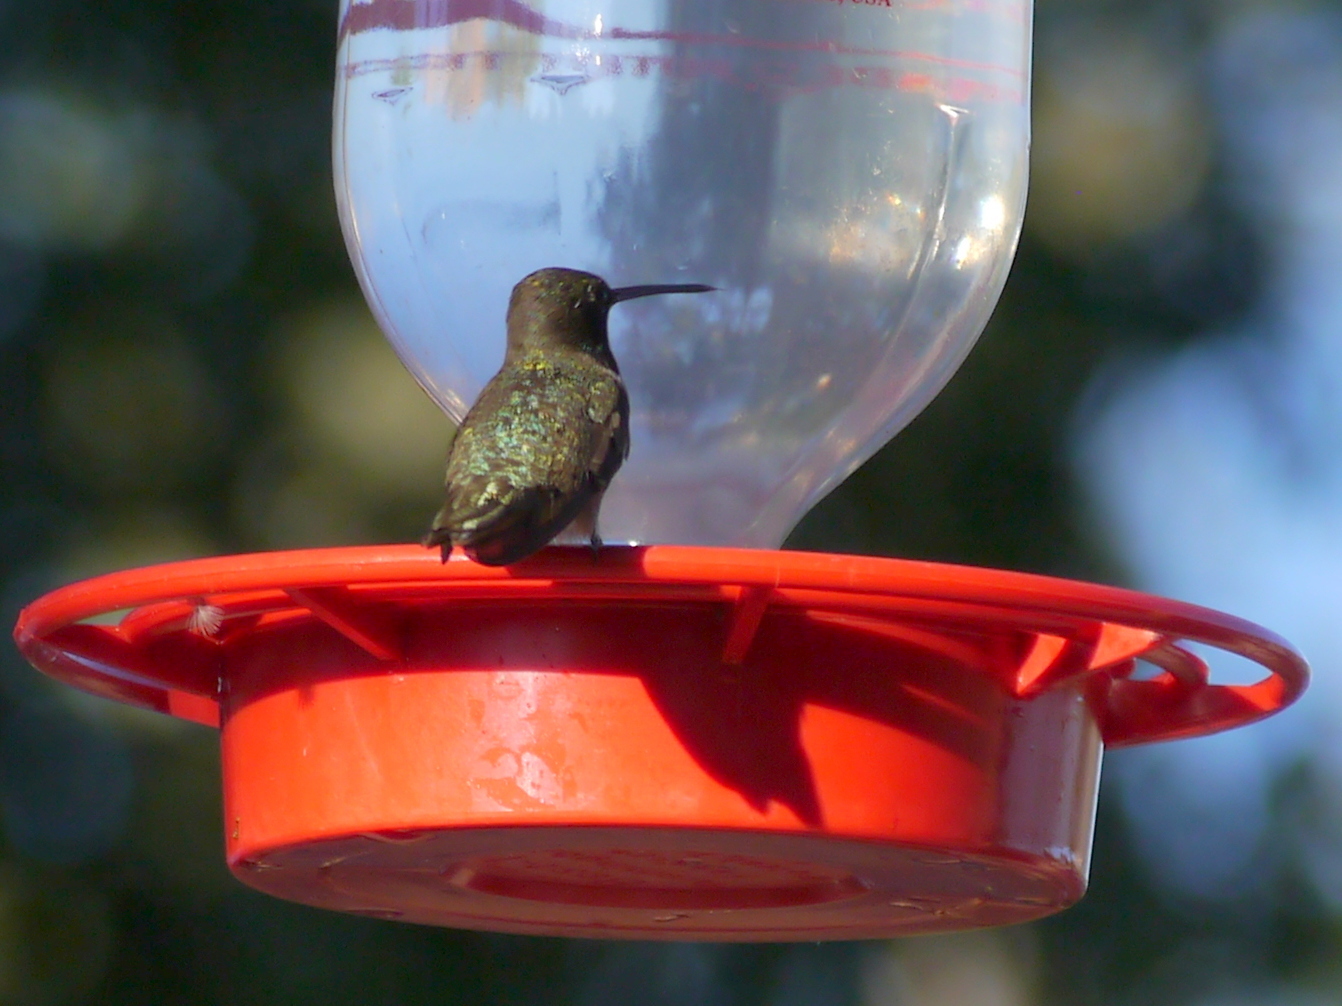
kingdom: Animalia
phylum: Chordata
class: Aves
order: Apodiformes
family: Trochilidae
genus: Archilochus
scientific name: Archilochus alexandri
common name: Black-chinned hummingbird
